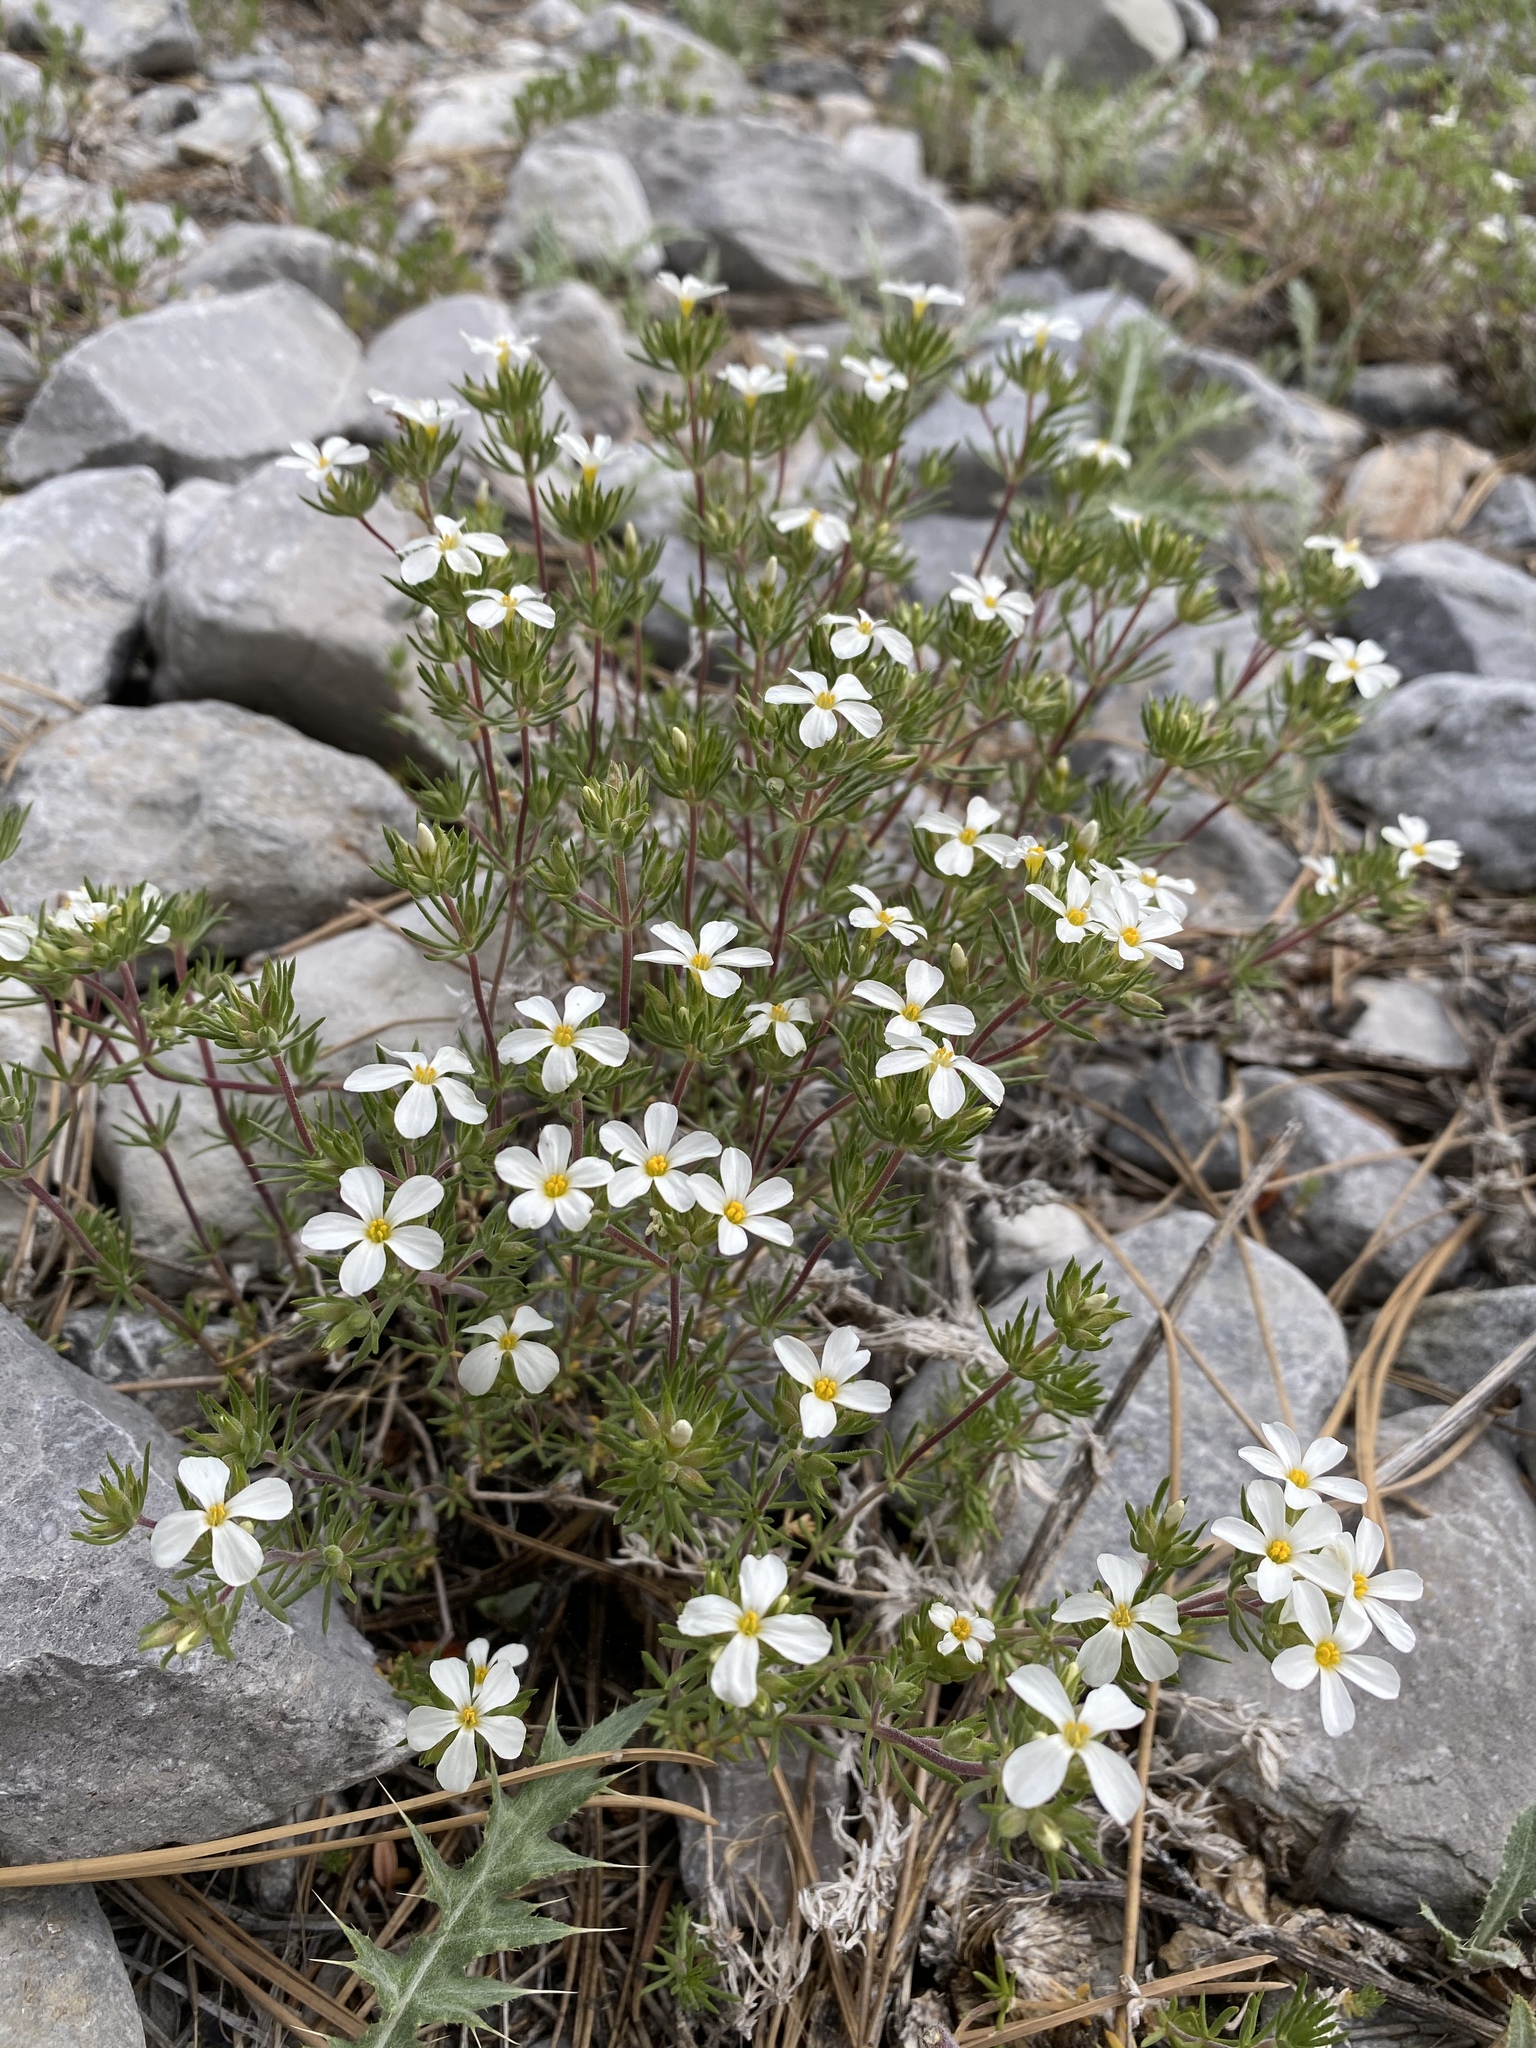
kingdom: Plantae
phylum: Tracheophyta
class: Magnoliopsida
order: Ericales
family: Polemoniaceae
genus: Leptosiphon
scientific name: Leptosiphon nuttallii
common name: Nuttall's linanthus
